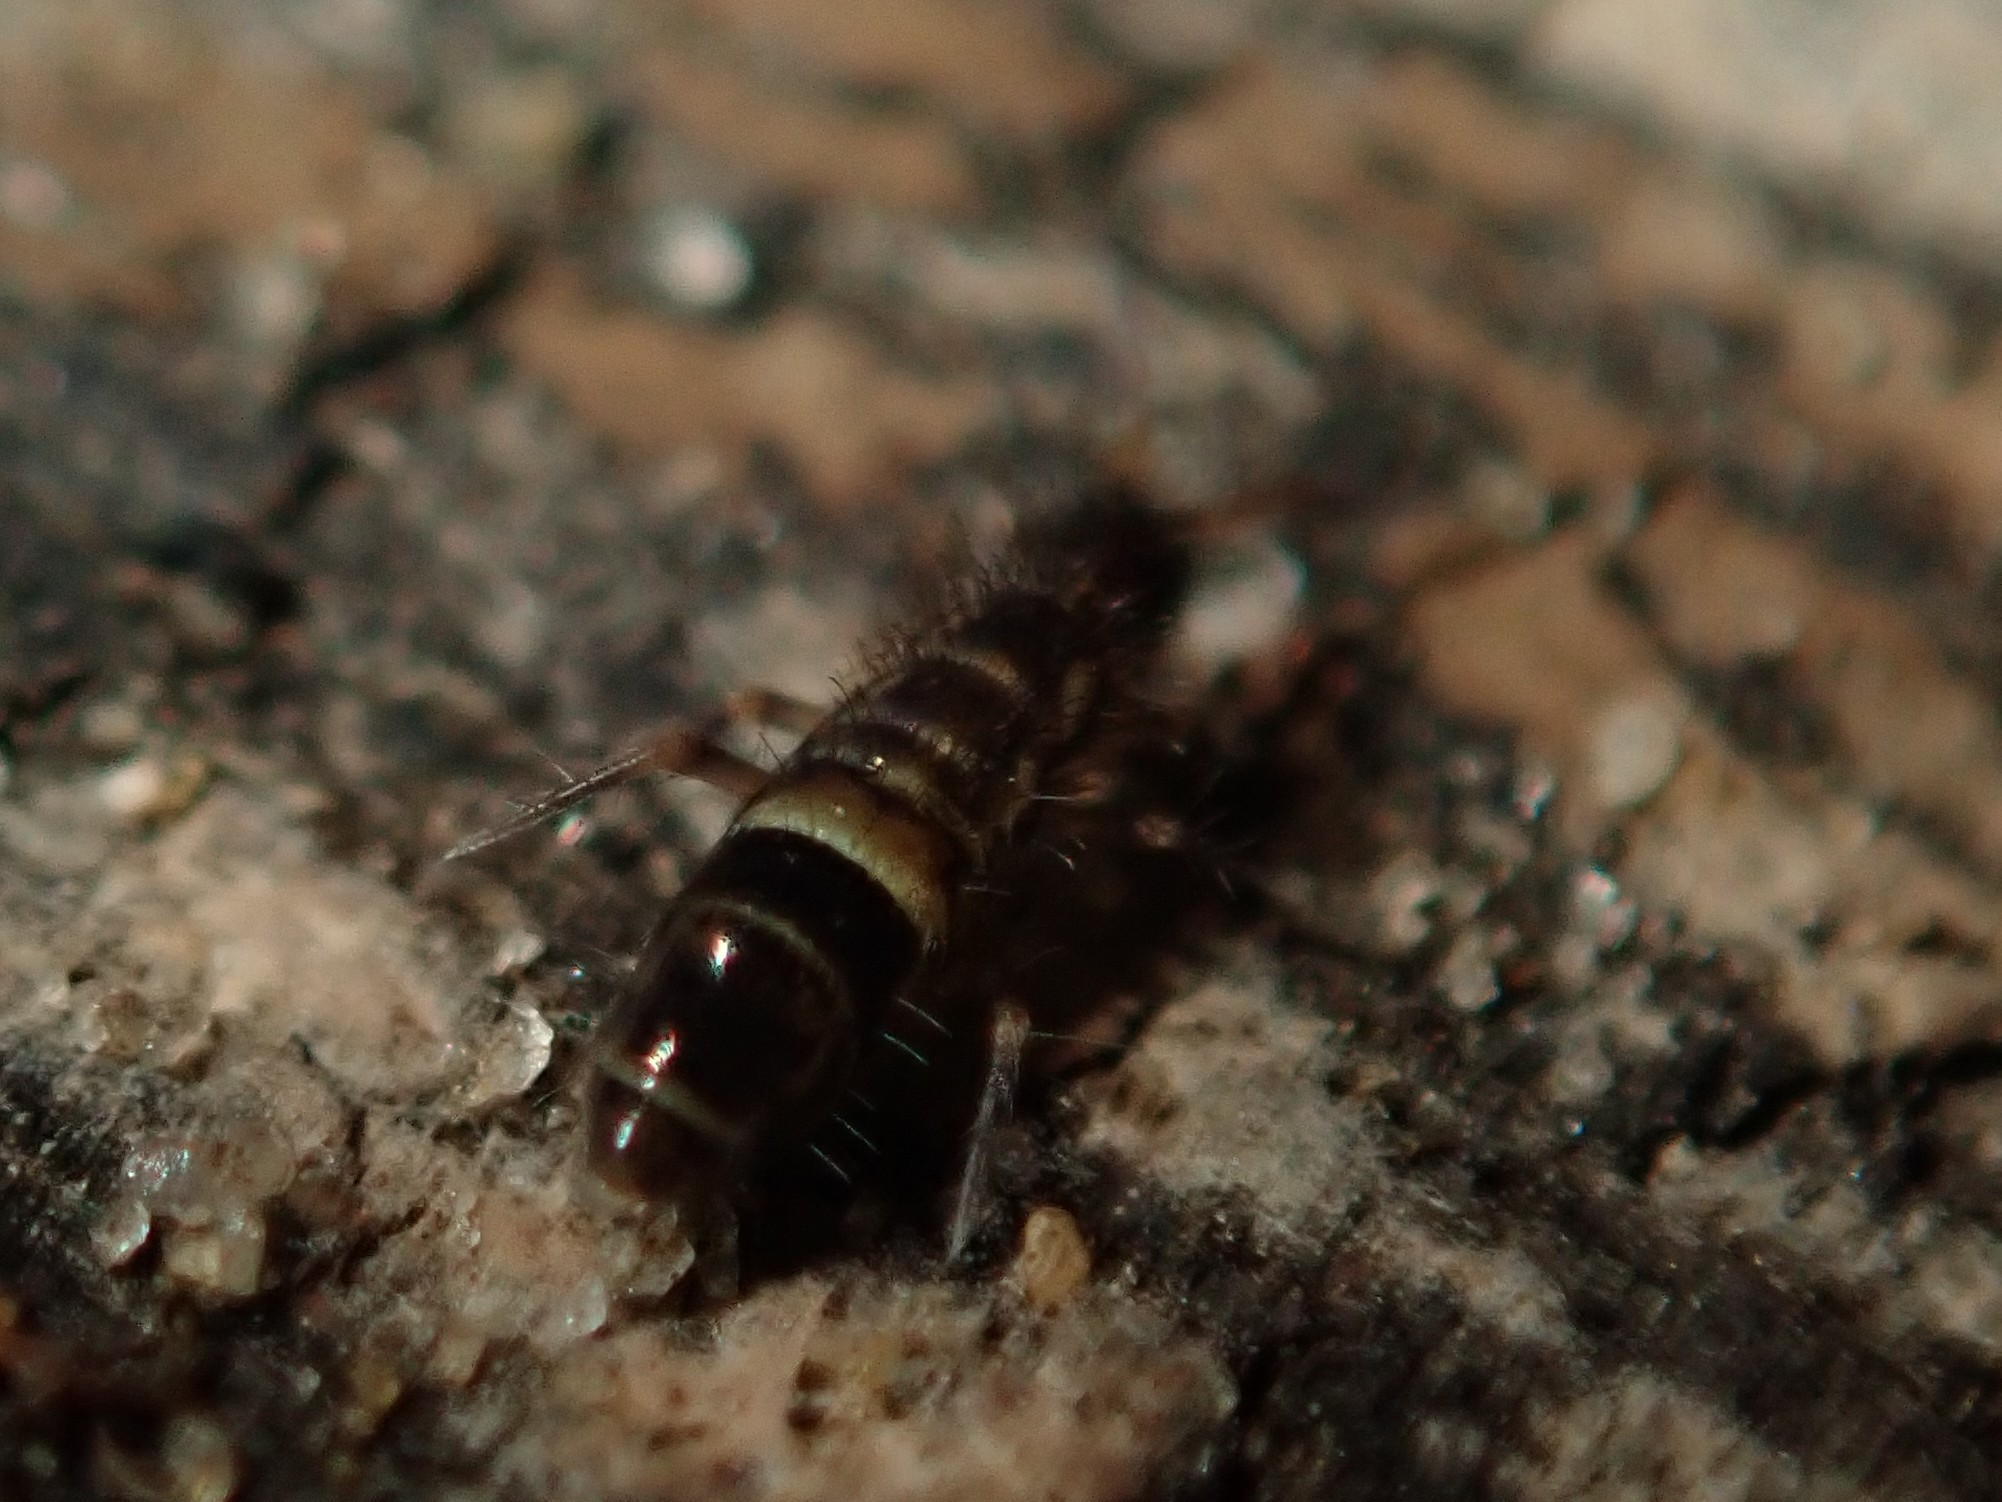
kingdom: Animalia
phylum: Arthropoda
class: Collembola
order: Entomobryomorpha
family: Orchesellidae
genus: Orchesella
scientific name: Orchesella cincta
